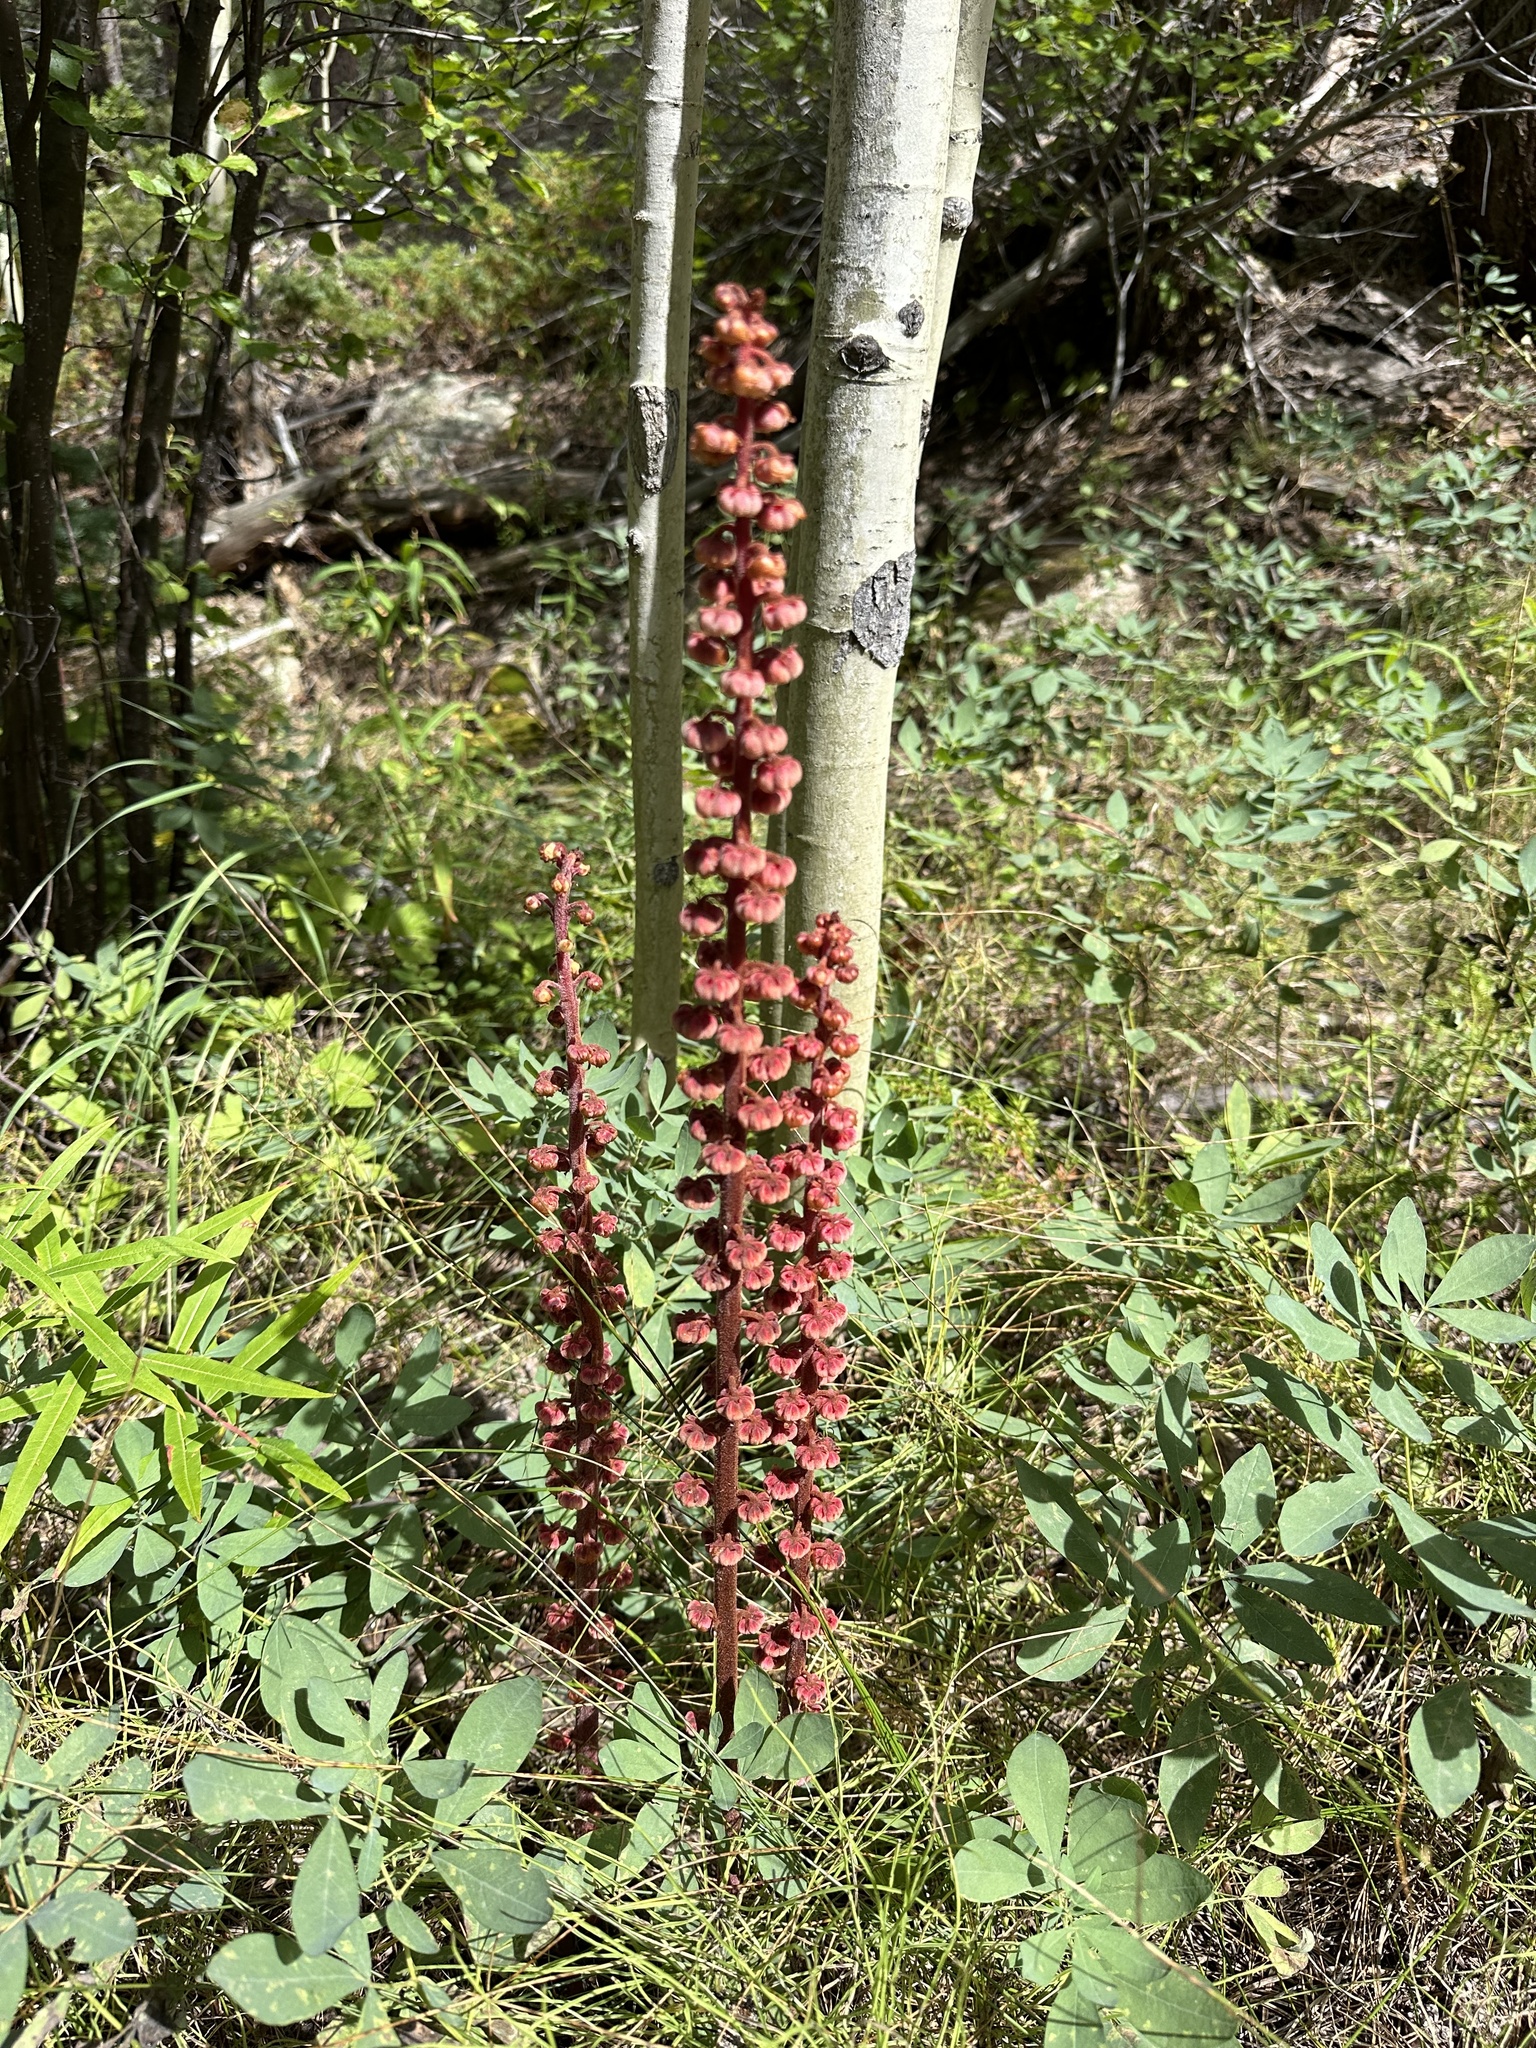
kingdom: Plantae
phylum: Tracheophyta
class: Magnoliopsida
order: Ericales
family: Ericaceae
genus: Pterospora
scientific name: Pterospora andromedea
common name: Giant bird's-nest
